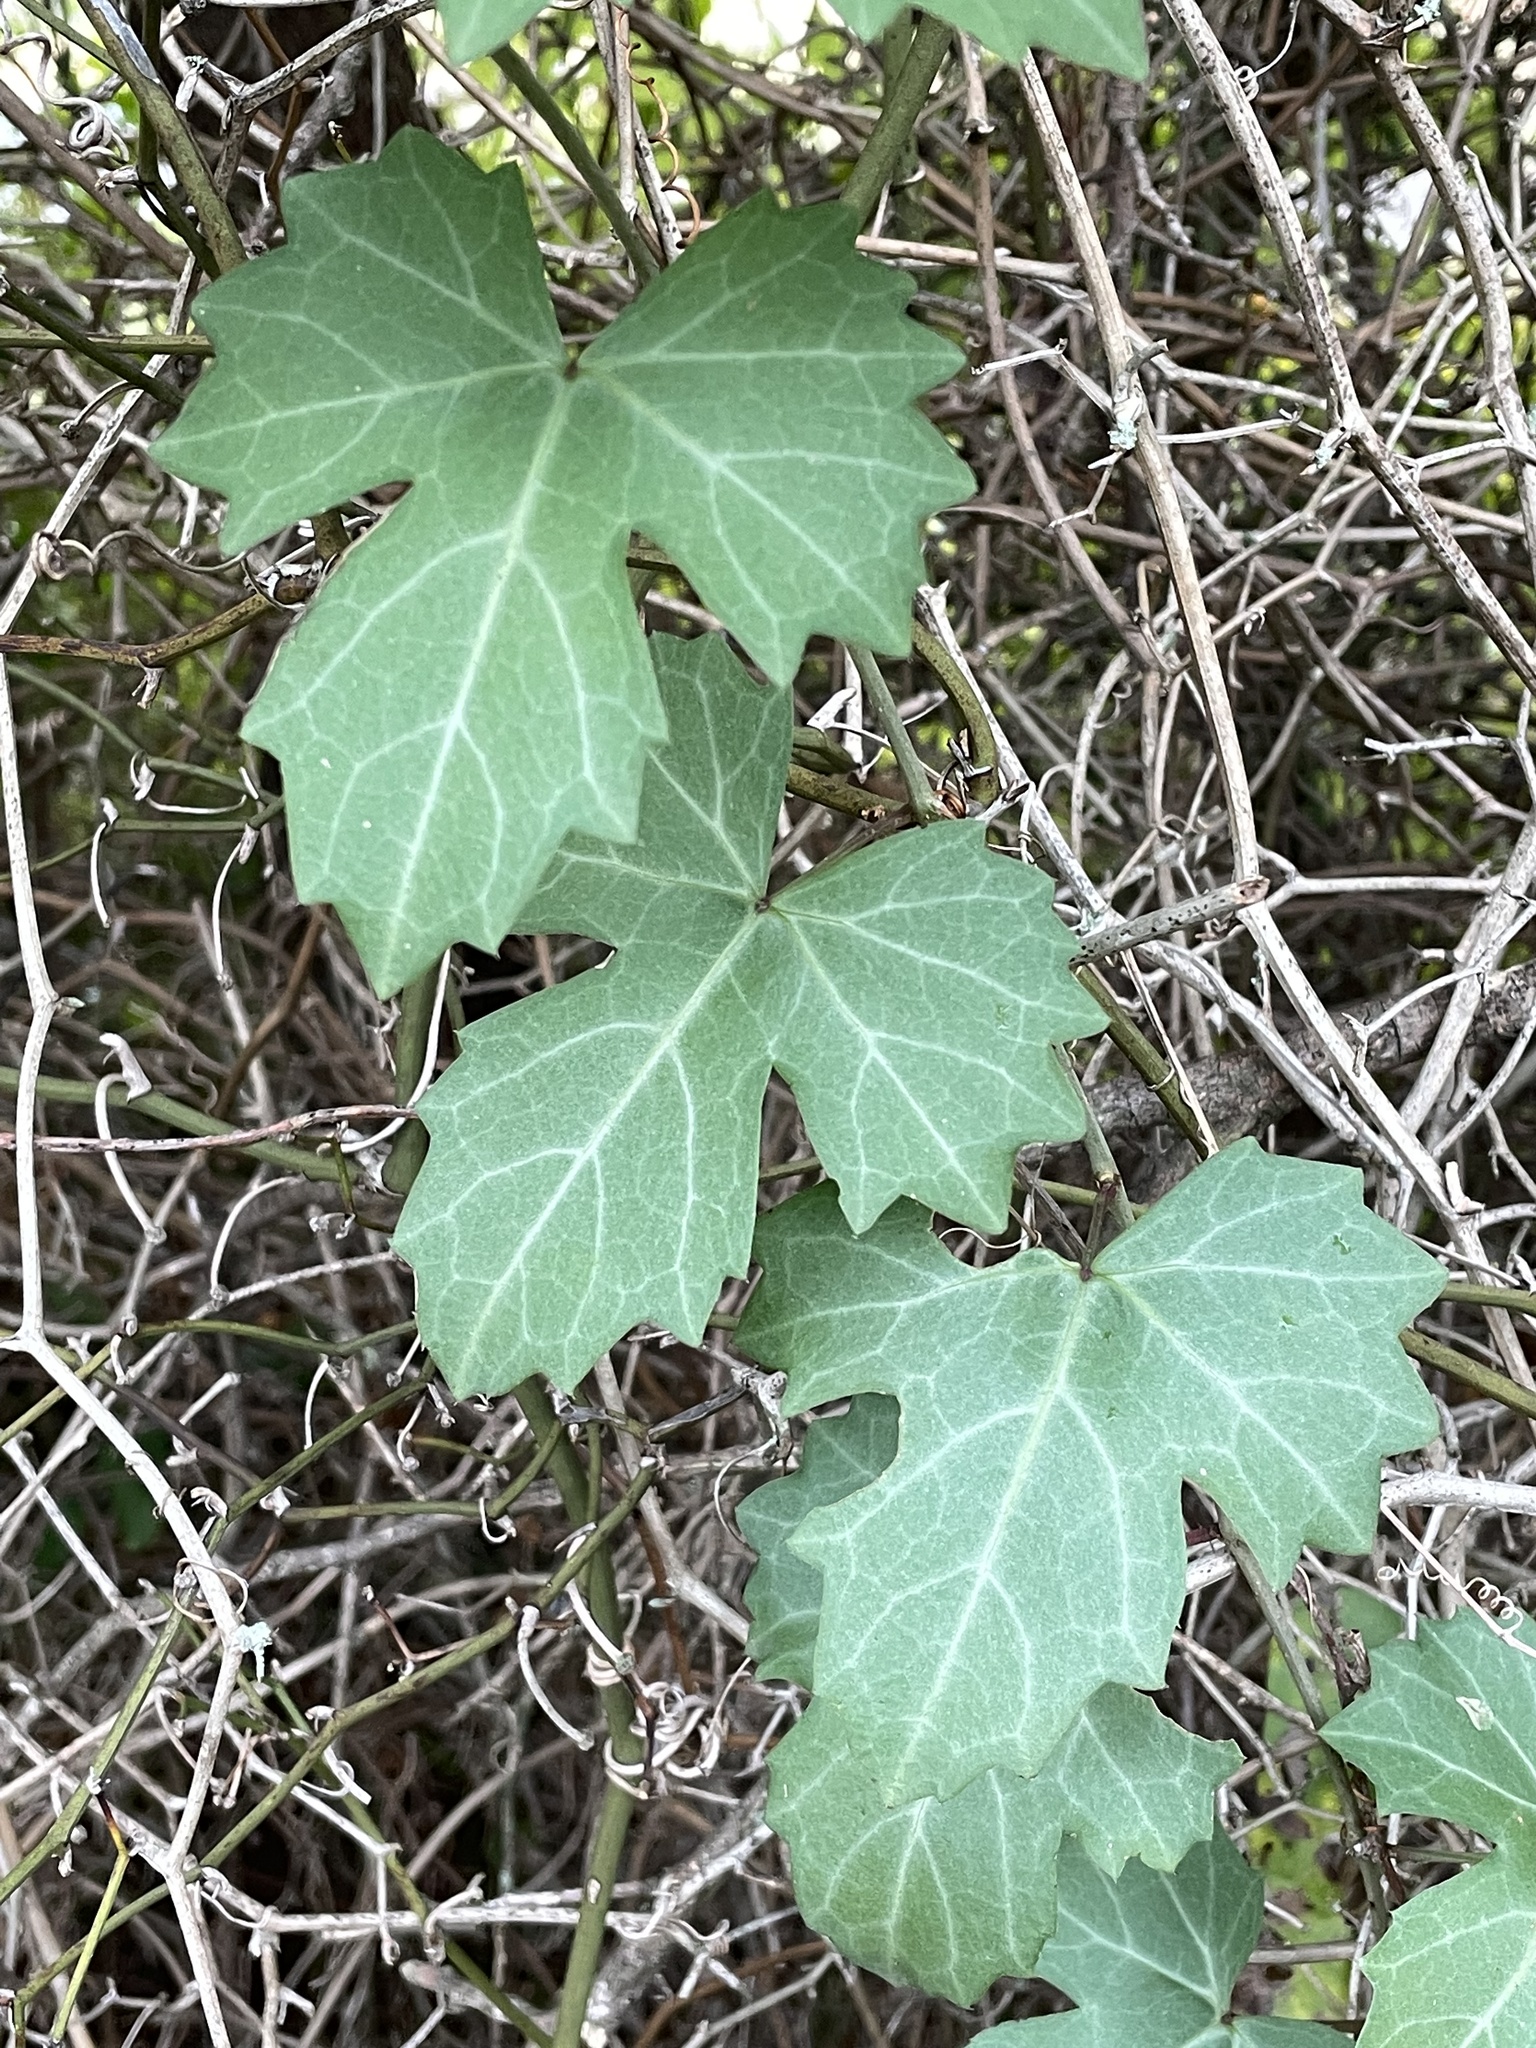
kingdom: Plantae
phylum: Tracheophyta
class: Magnoliopsida
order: Vitales
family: Vitaceae
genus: Cissus
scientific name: Cissus trifoliata
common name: Vine-sorrel
